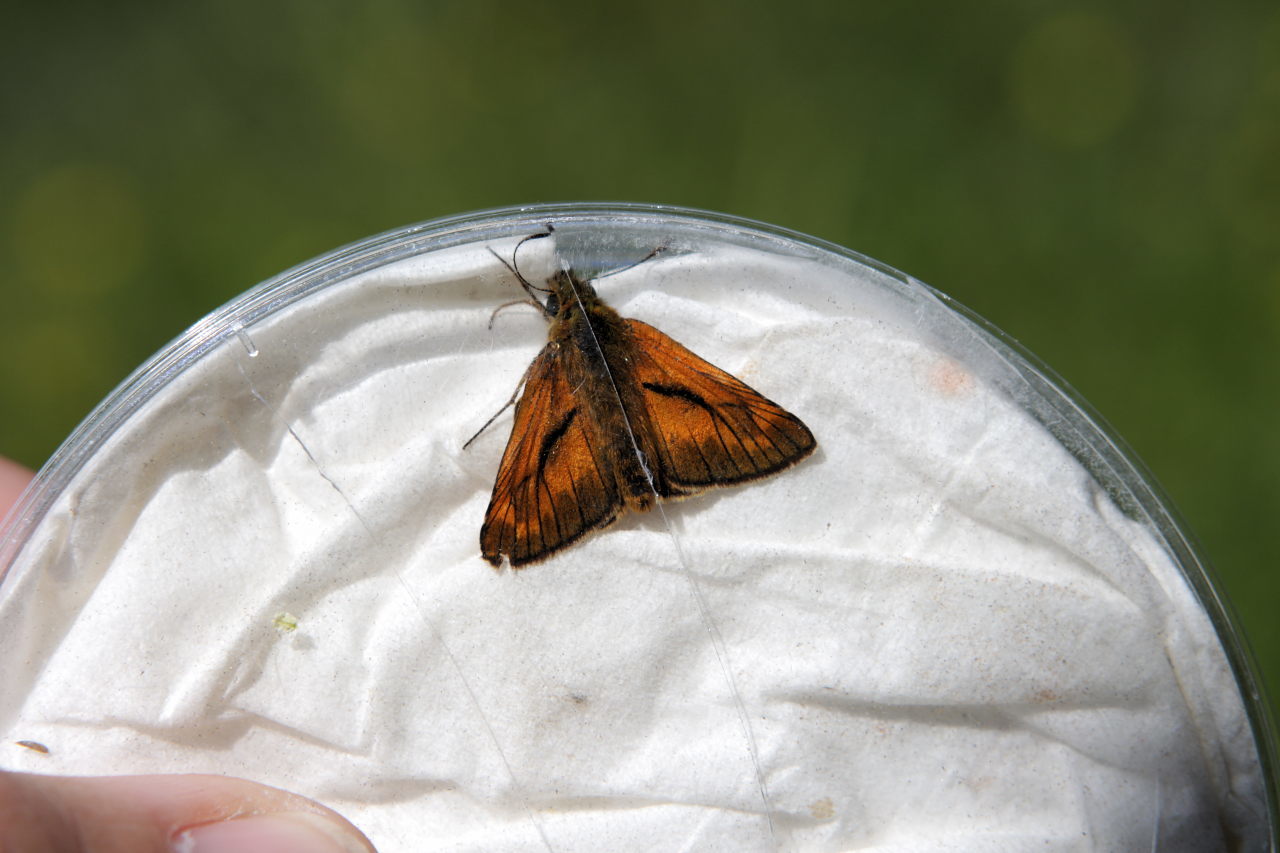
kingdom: Animalia
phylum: Arthropoda
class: Insecta
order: Lepidoptera
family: Hesperiidae
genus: Ochlodes
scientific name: Ochlodes venata
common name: Large skipper
